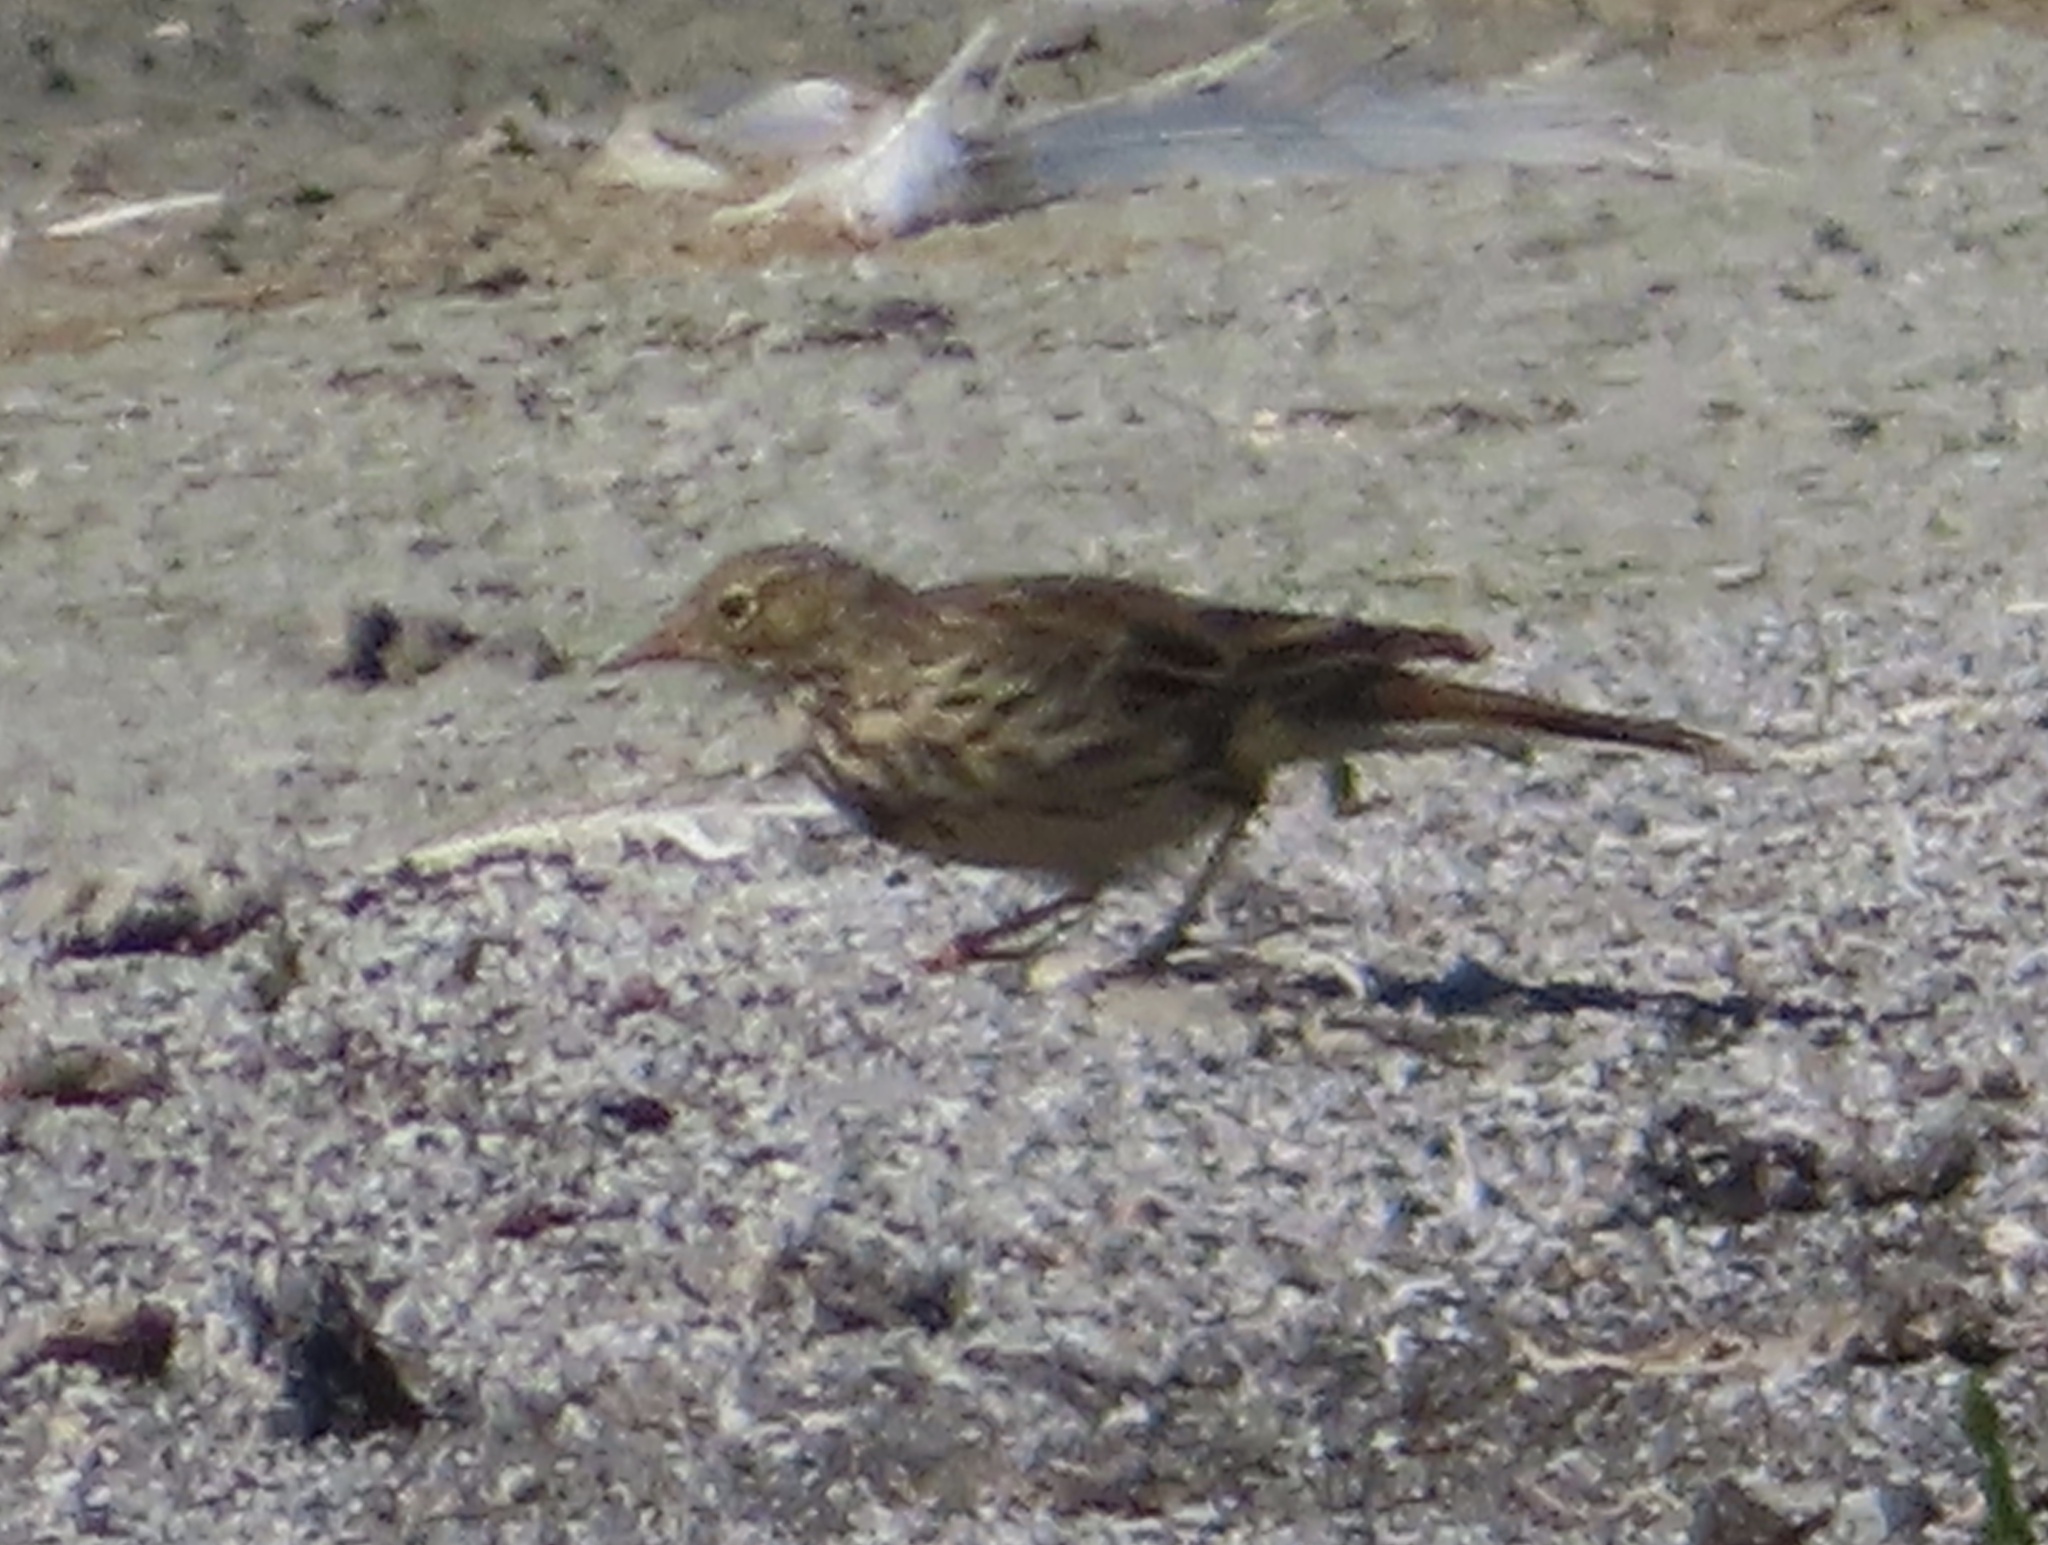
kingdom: Animalia
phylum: Chordata
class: Aves
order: Passeriformes
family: Motacillidae
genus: Anthus
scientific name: Anthus pratensis
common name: Meadow pipit
